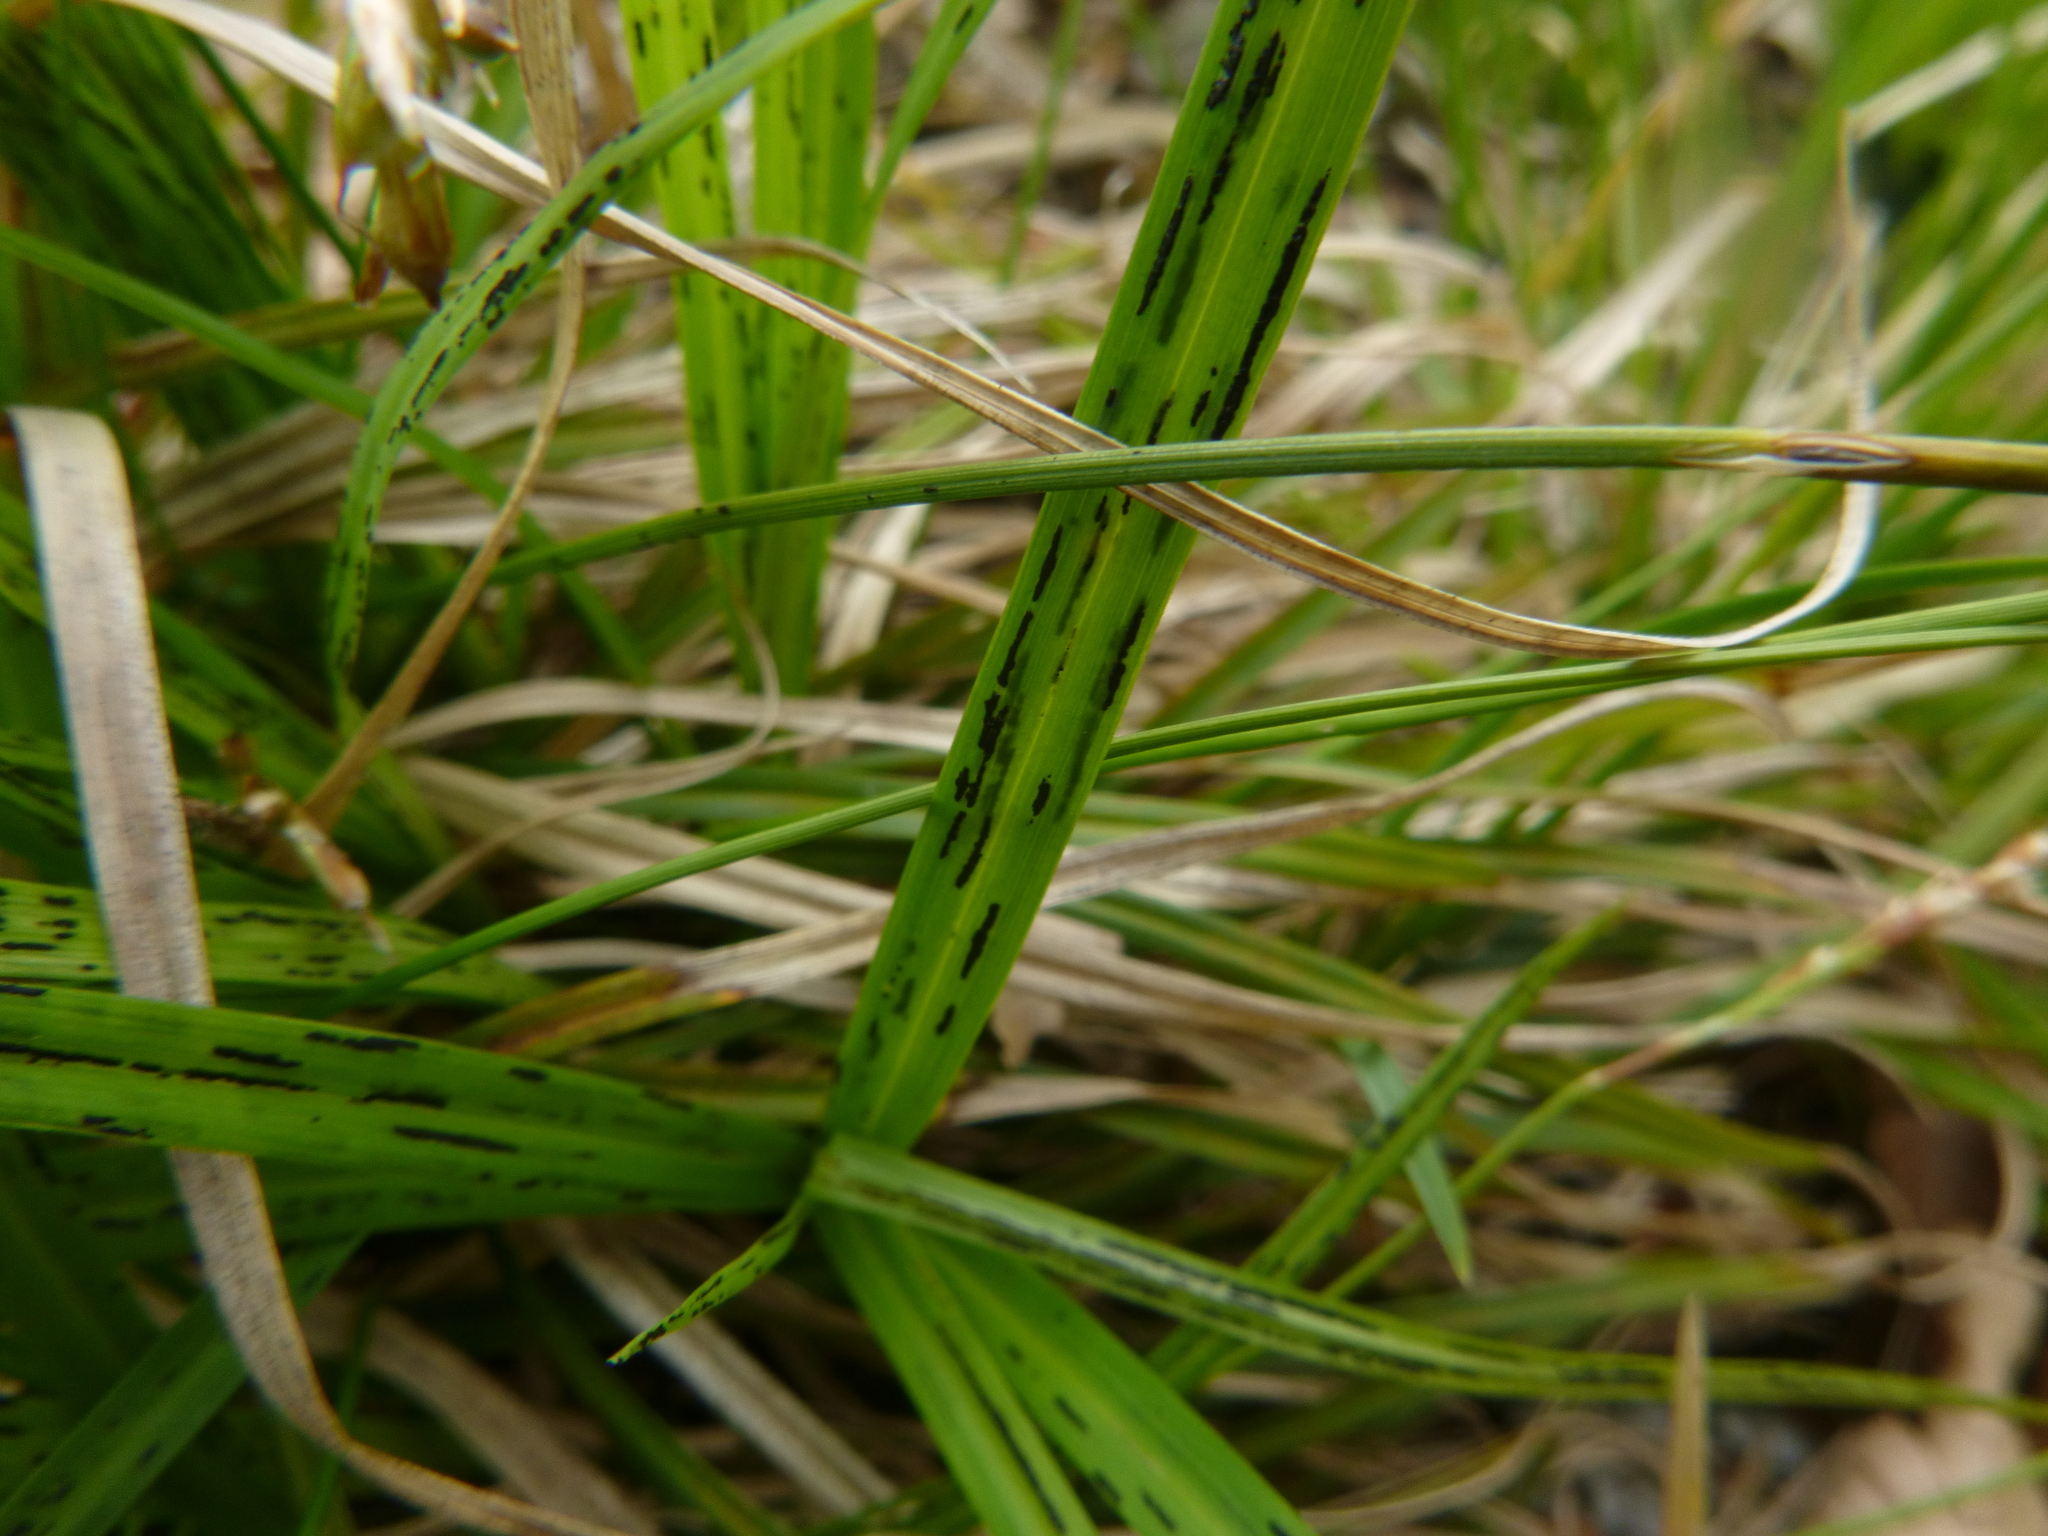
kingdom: Plantae
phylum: Tracheophyta
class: Liliopsida
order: Poales
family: Cyperaceae
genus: Carex
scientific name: Carex digitata
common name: Fingered sedge
